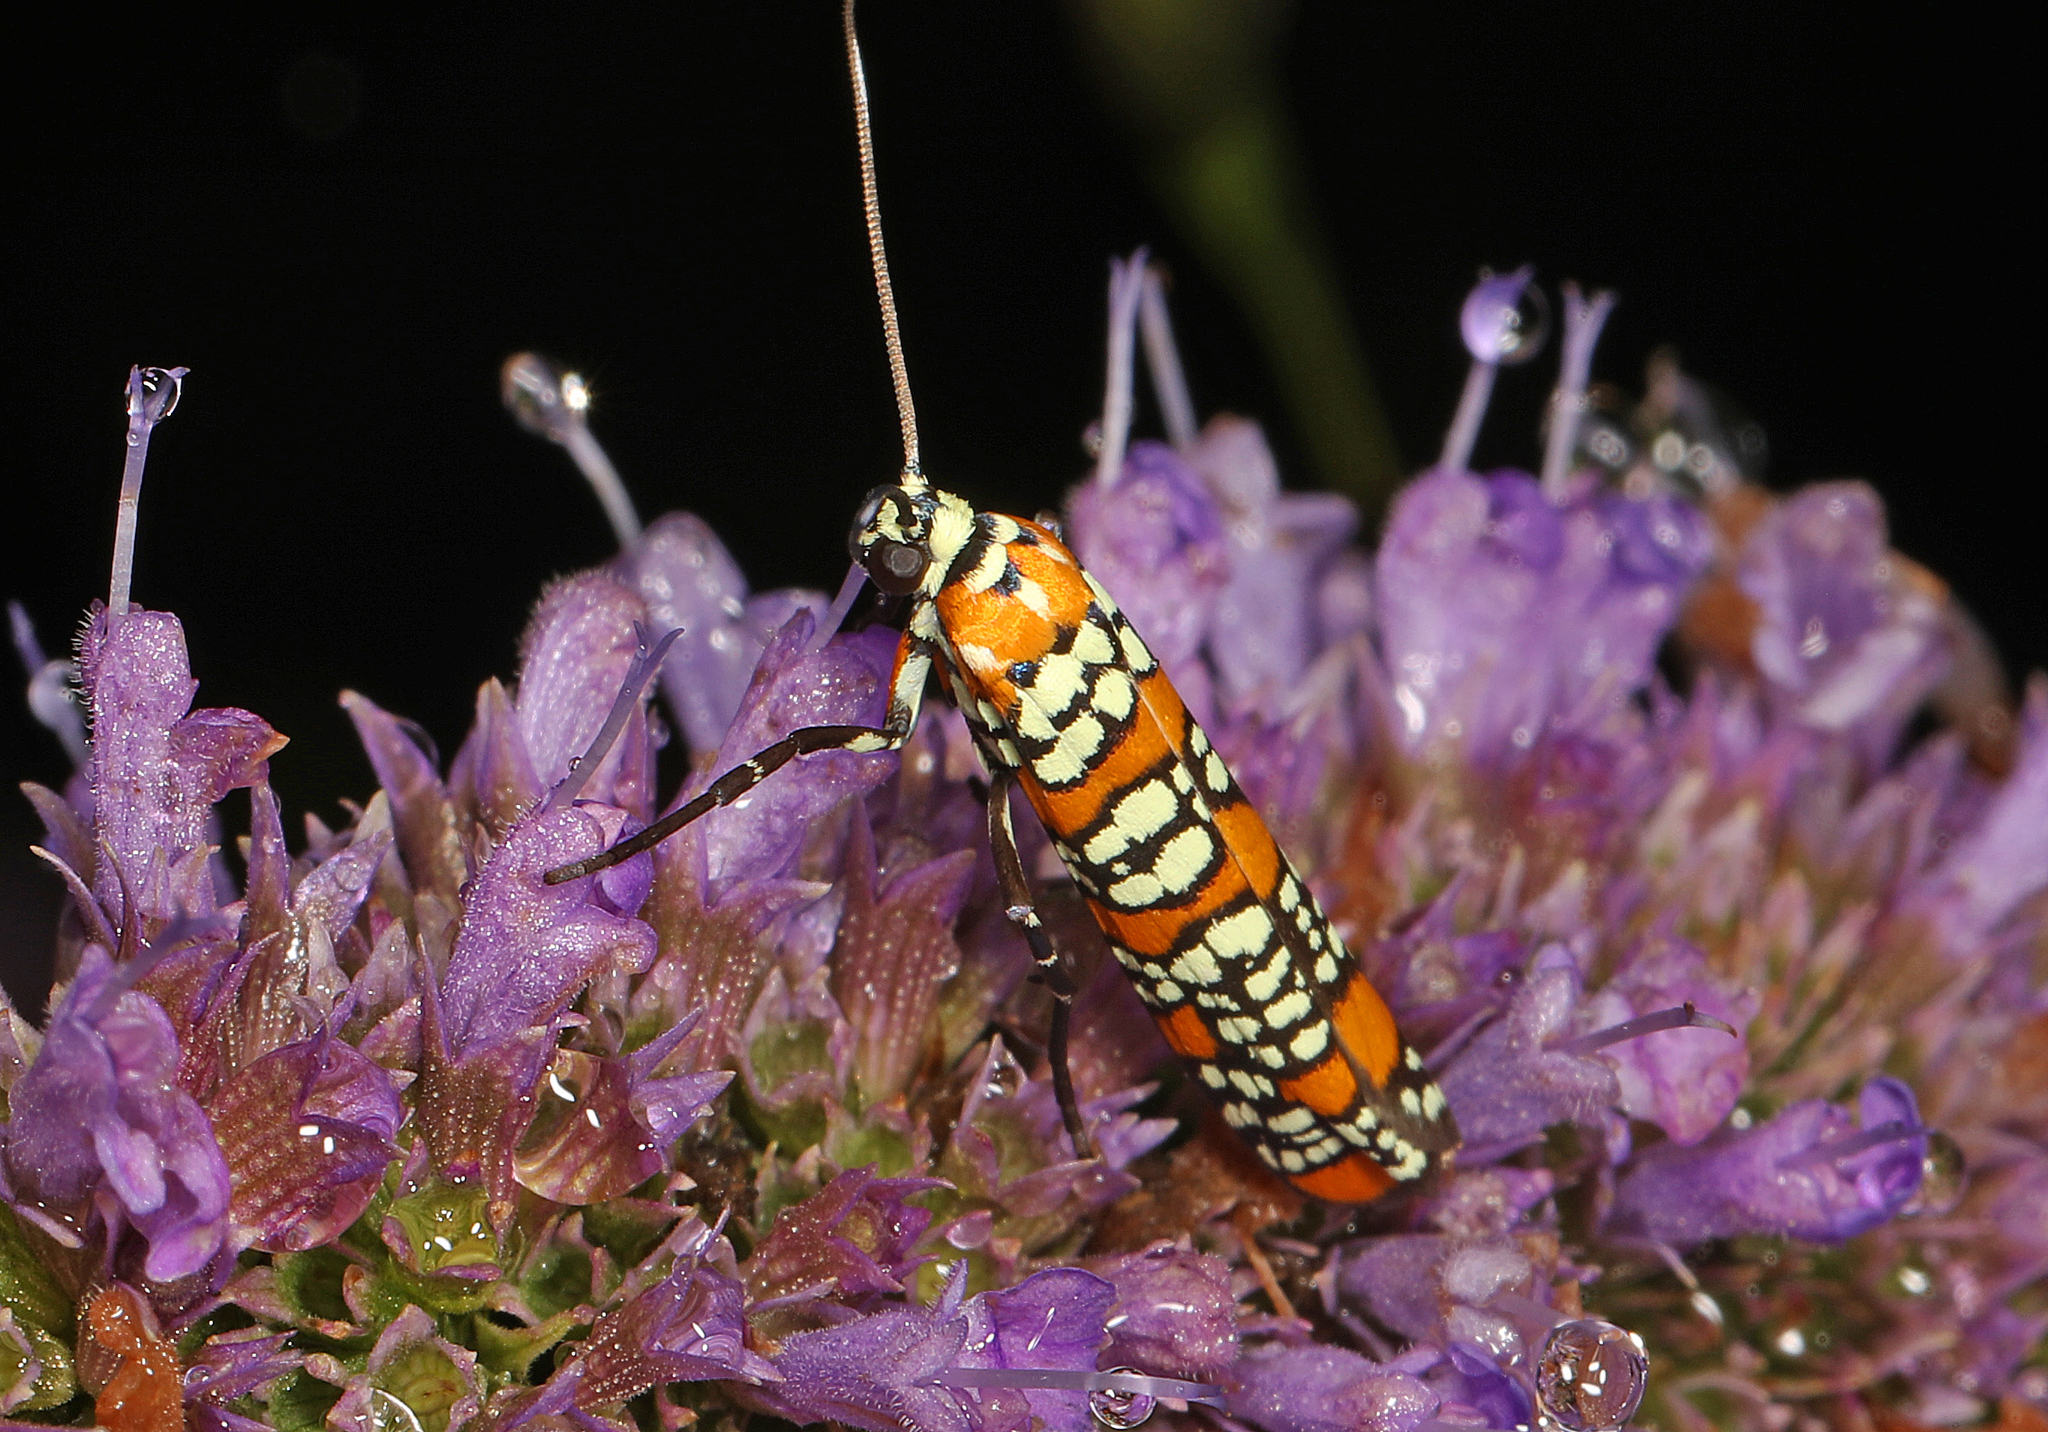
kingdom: Animalia
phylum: Arthropoda
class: Insecta
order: Lepidoptera
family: Attevidae
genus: Atteva
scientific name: Atteva punctella
